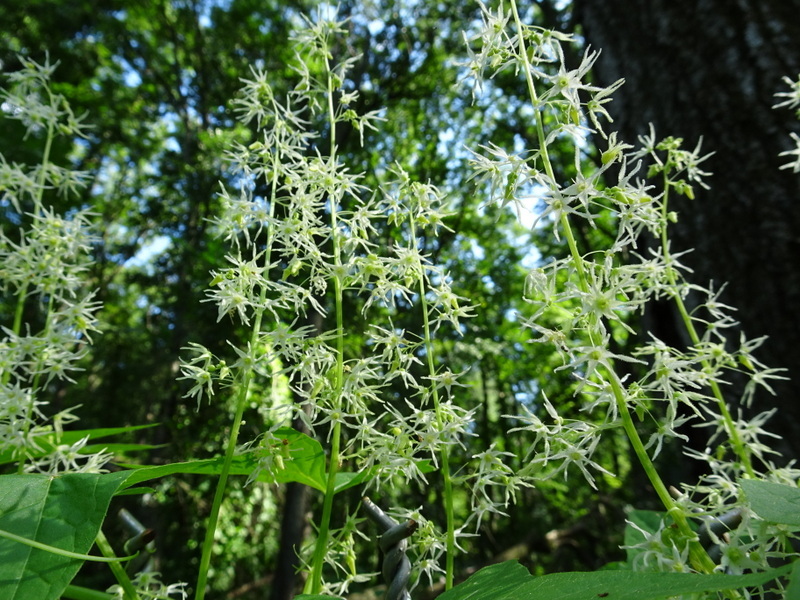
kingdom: Plantae
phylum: Tracheophyta
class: Magnoliopsida
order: Cucurbitales
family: Cucurbitaceae
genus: Echinocystis
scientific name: Echinocystis lobata
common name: Wild cucumber
